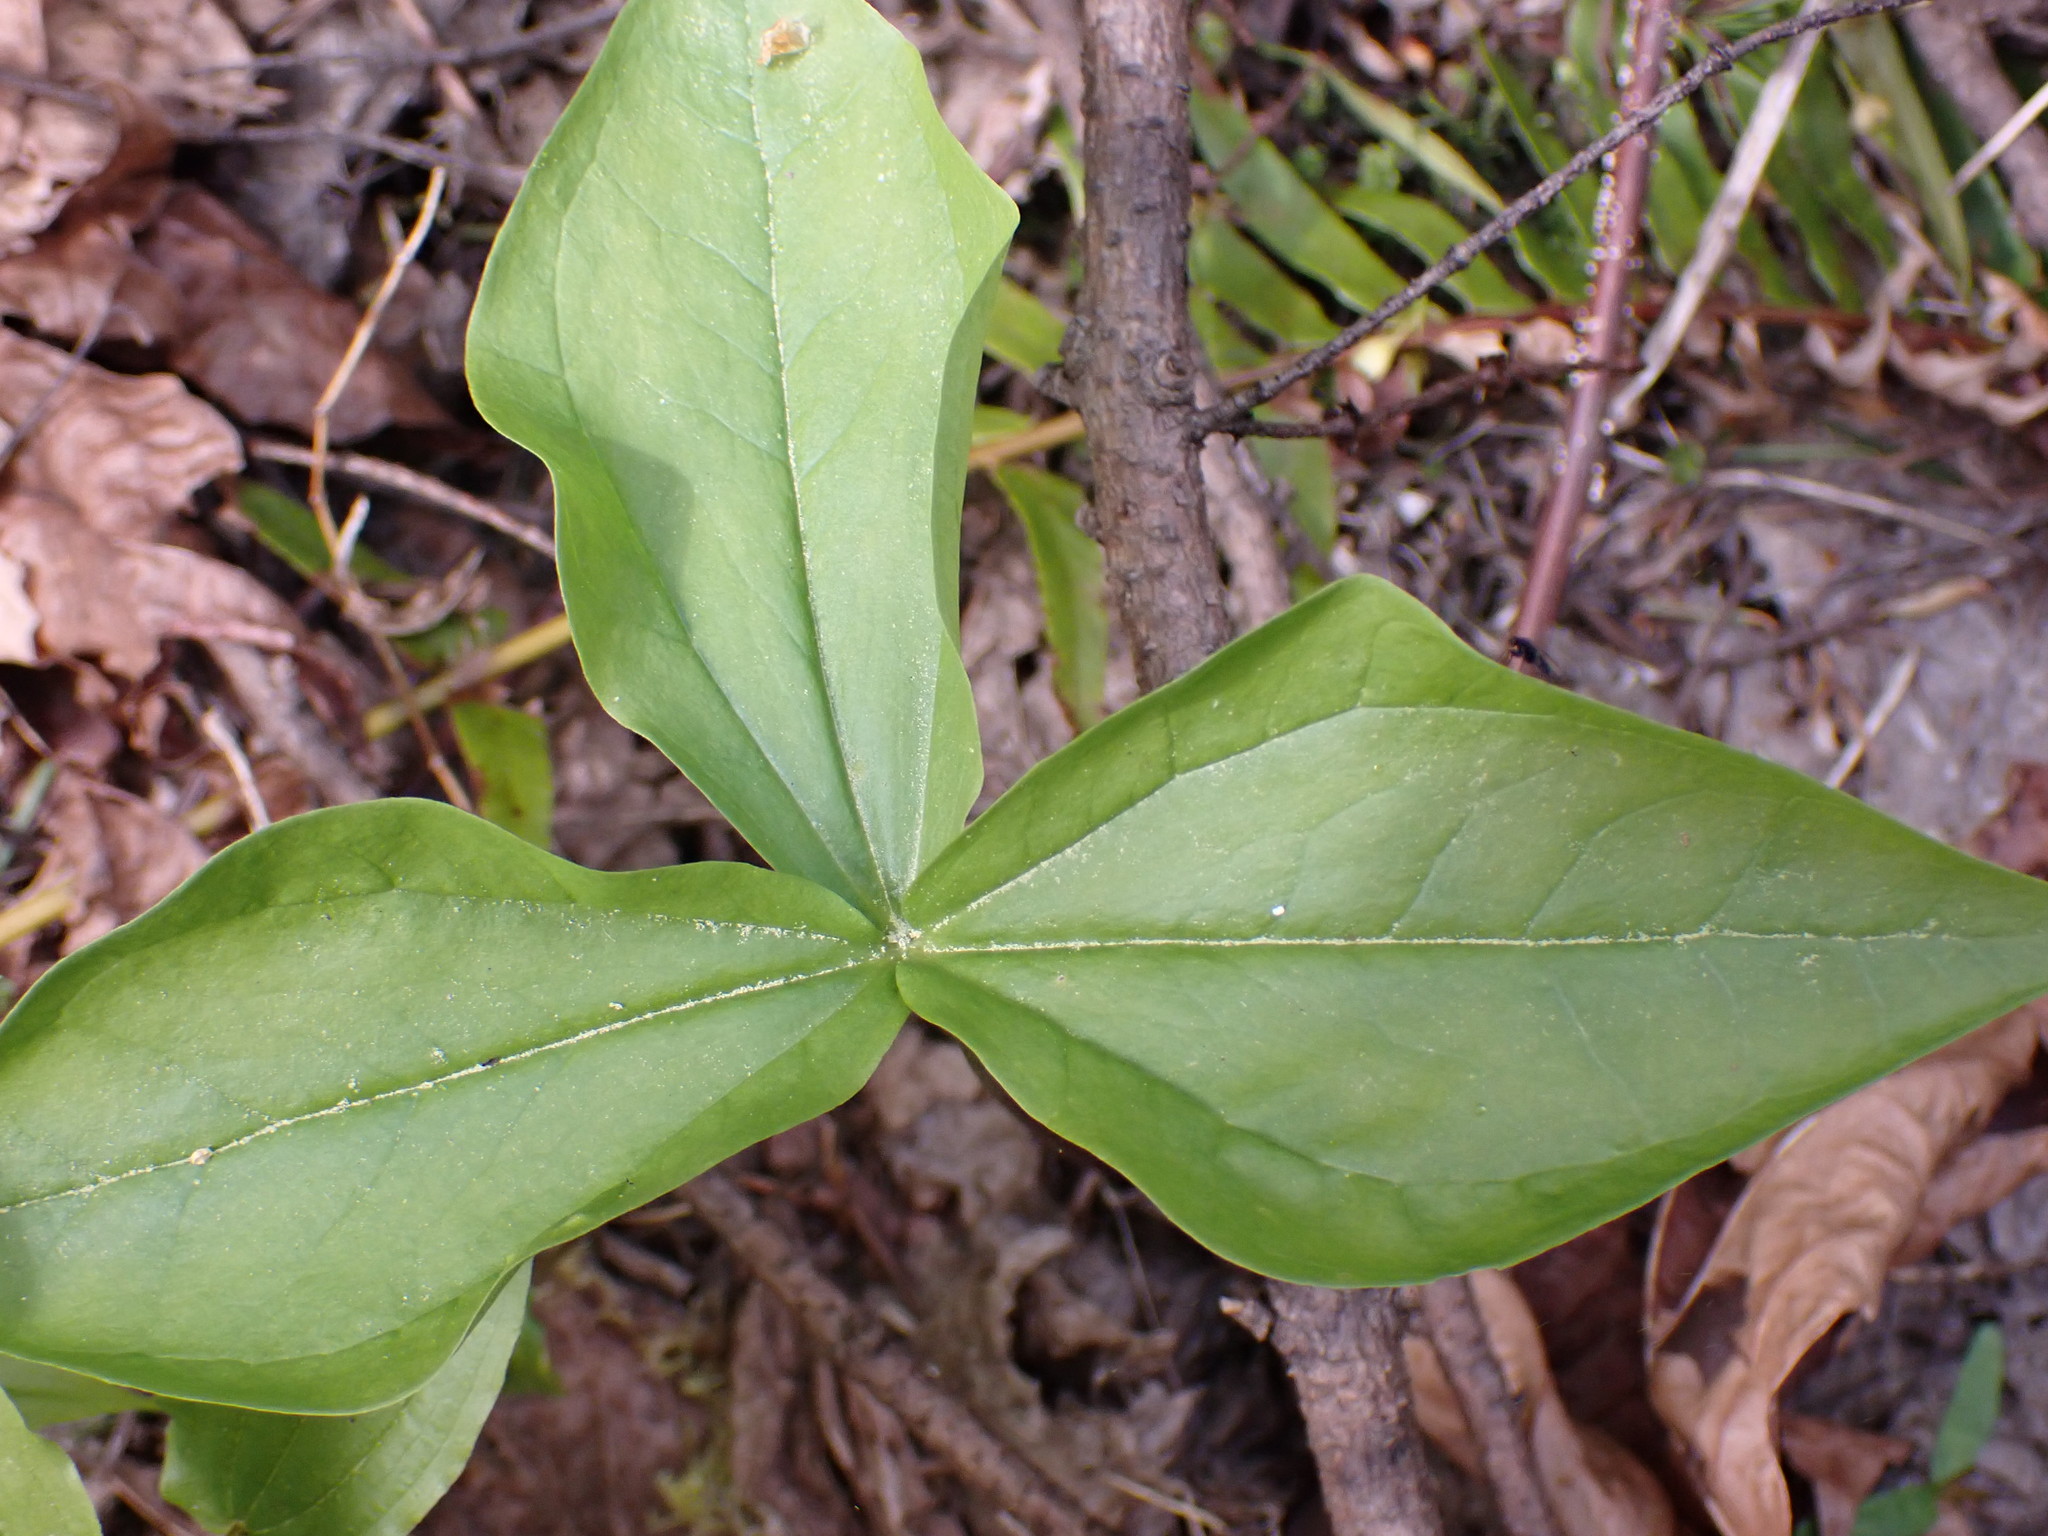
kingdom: Plantae
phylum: Tracheophyta
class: Liliopsida
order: Liliales
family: Melanthiaceae
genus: Trillium
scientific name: Trillium ovatum
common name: Pacific trillium
